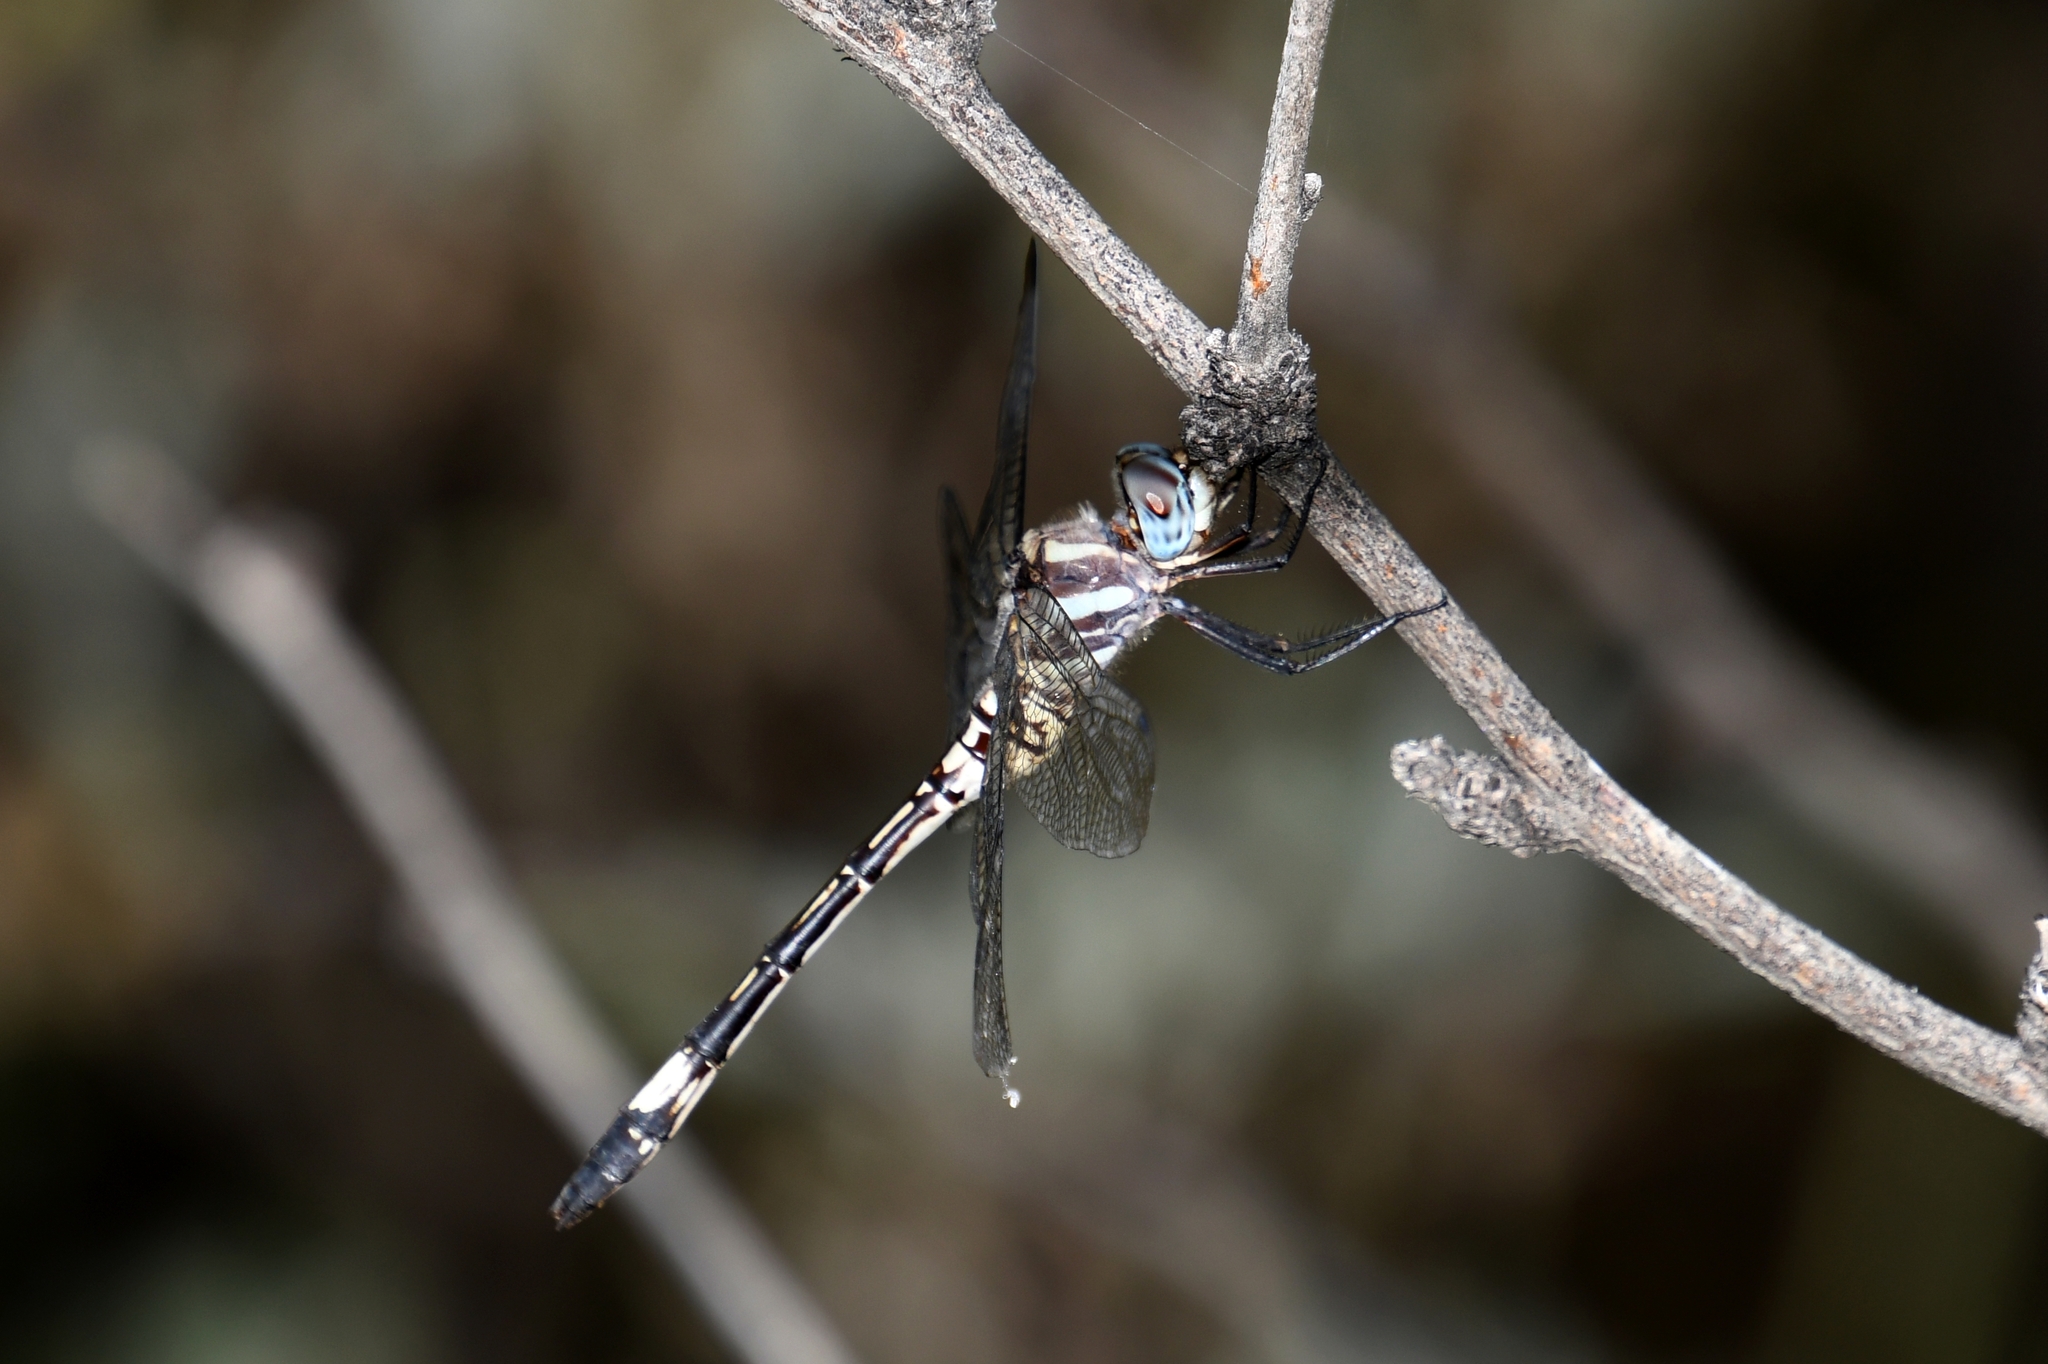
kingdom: Animalia
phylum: Arthropoda
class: Insecta
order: Odonata
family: Libellulidae
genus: Brechmorhoga
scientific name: Brechmorhoga mendax
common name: Pale-faced clubskimmer
